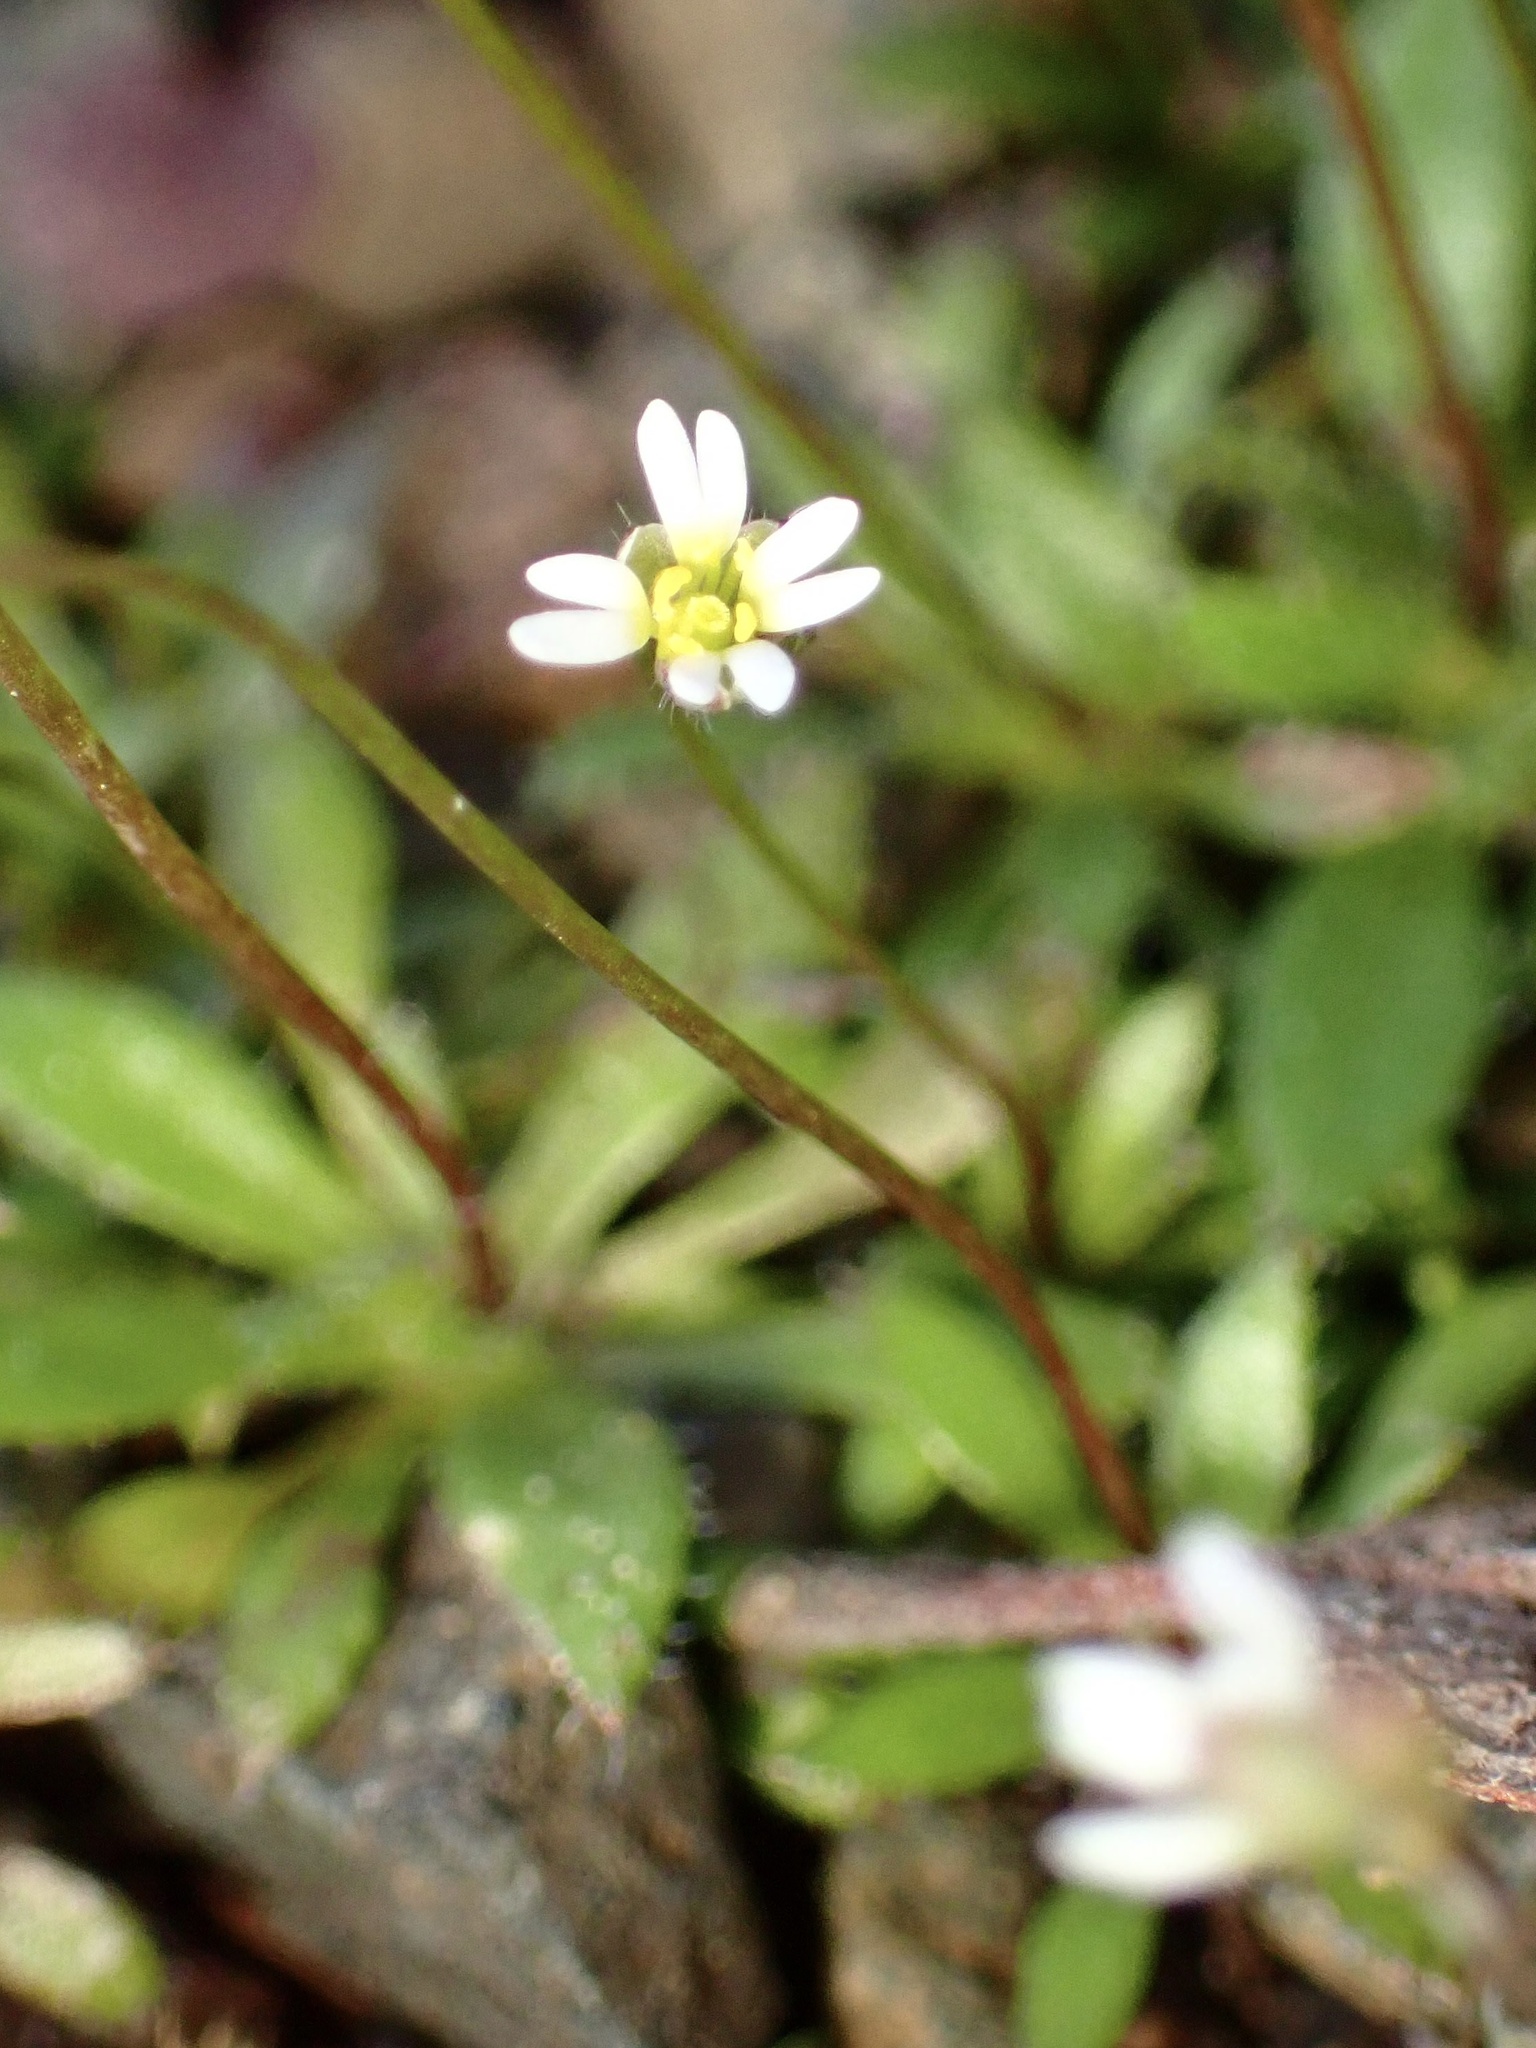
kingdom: Plantae
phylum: Tracheophyta
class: Magnoliopsida
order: Brassicales
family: Brassicaceae
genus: Draba
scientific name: Draba verna
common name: Spring draba
